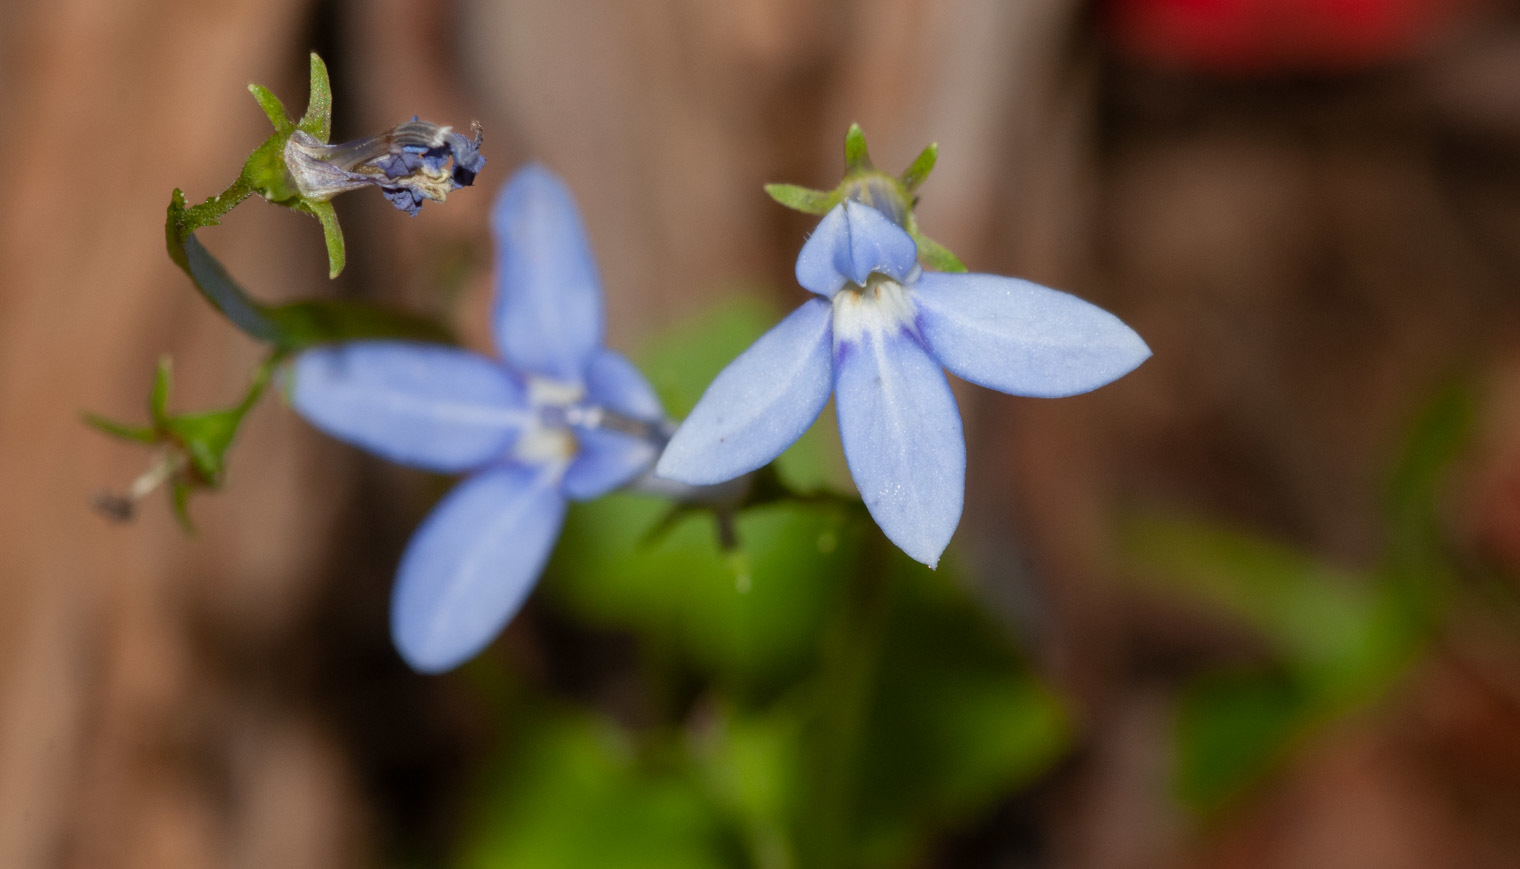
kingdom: Plantae
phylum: Tracheophyta
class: Magnoliopsida
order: Asterales
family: Campanulaceae
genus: Lobelia
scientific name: Lobelia trigonocaulis
